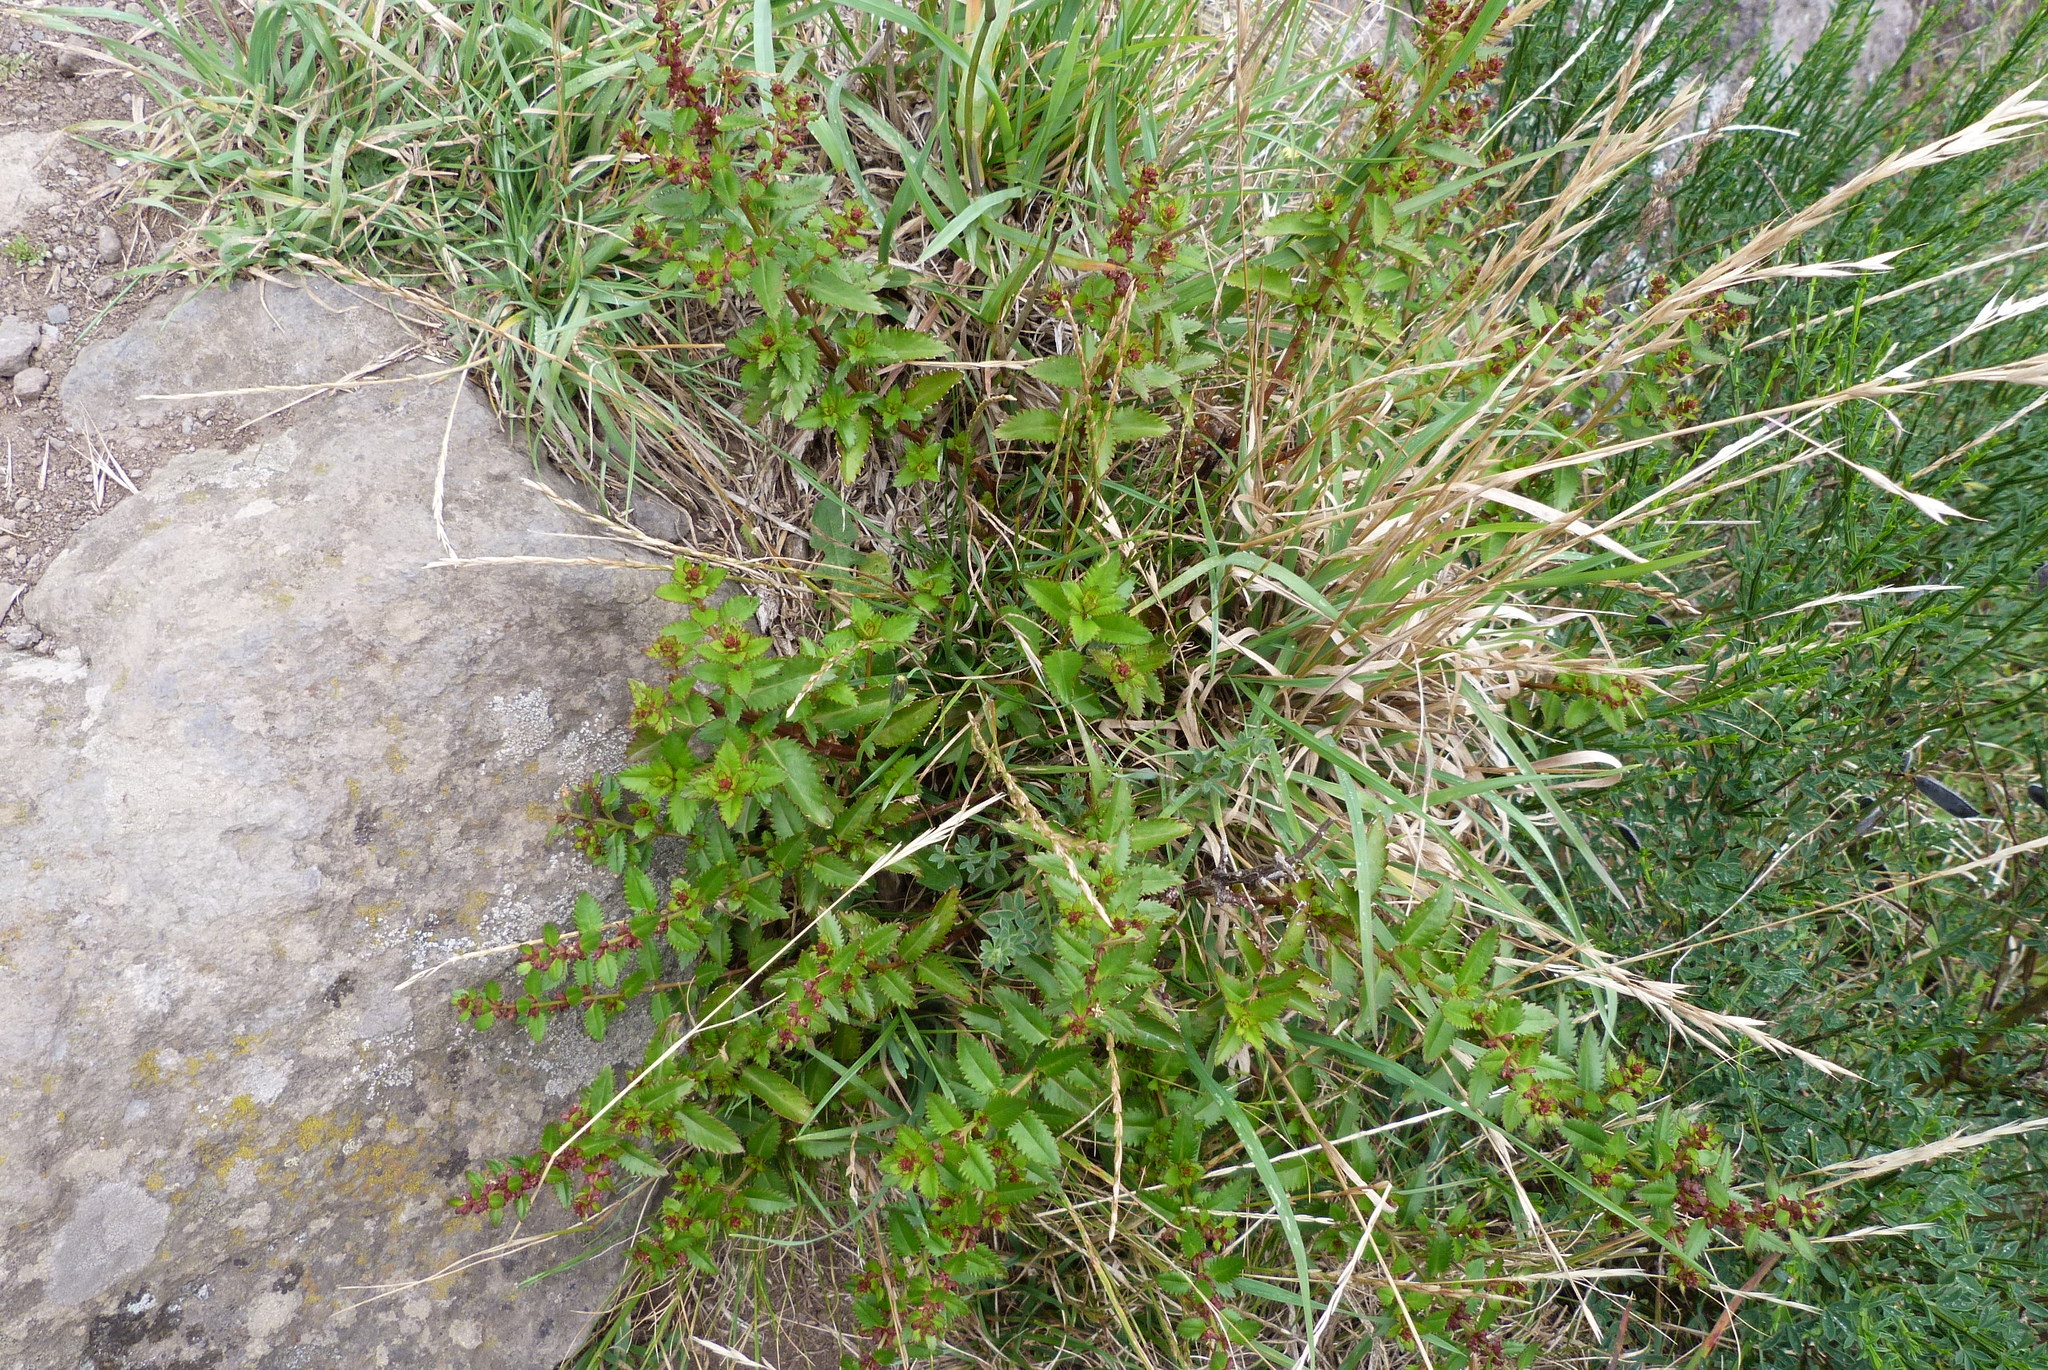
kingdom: Plantae
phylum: Tracheophyta
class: Magnoliopsida
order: Saxifragales
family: Haloragaceae
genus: Haloragis
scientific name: Haloragis erecta
